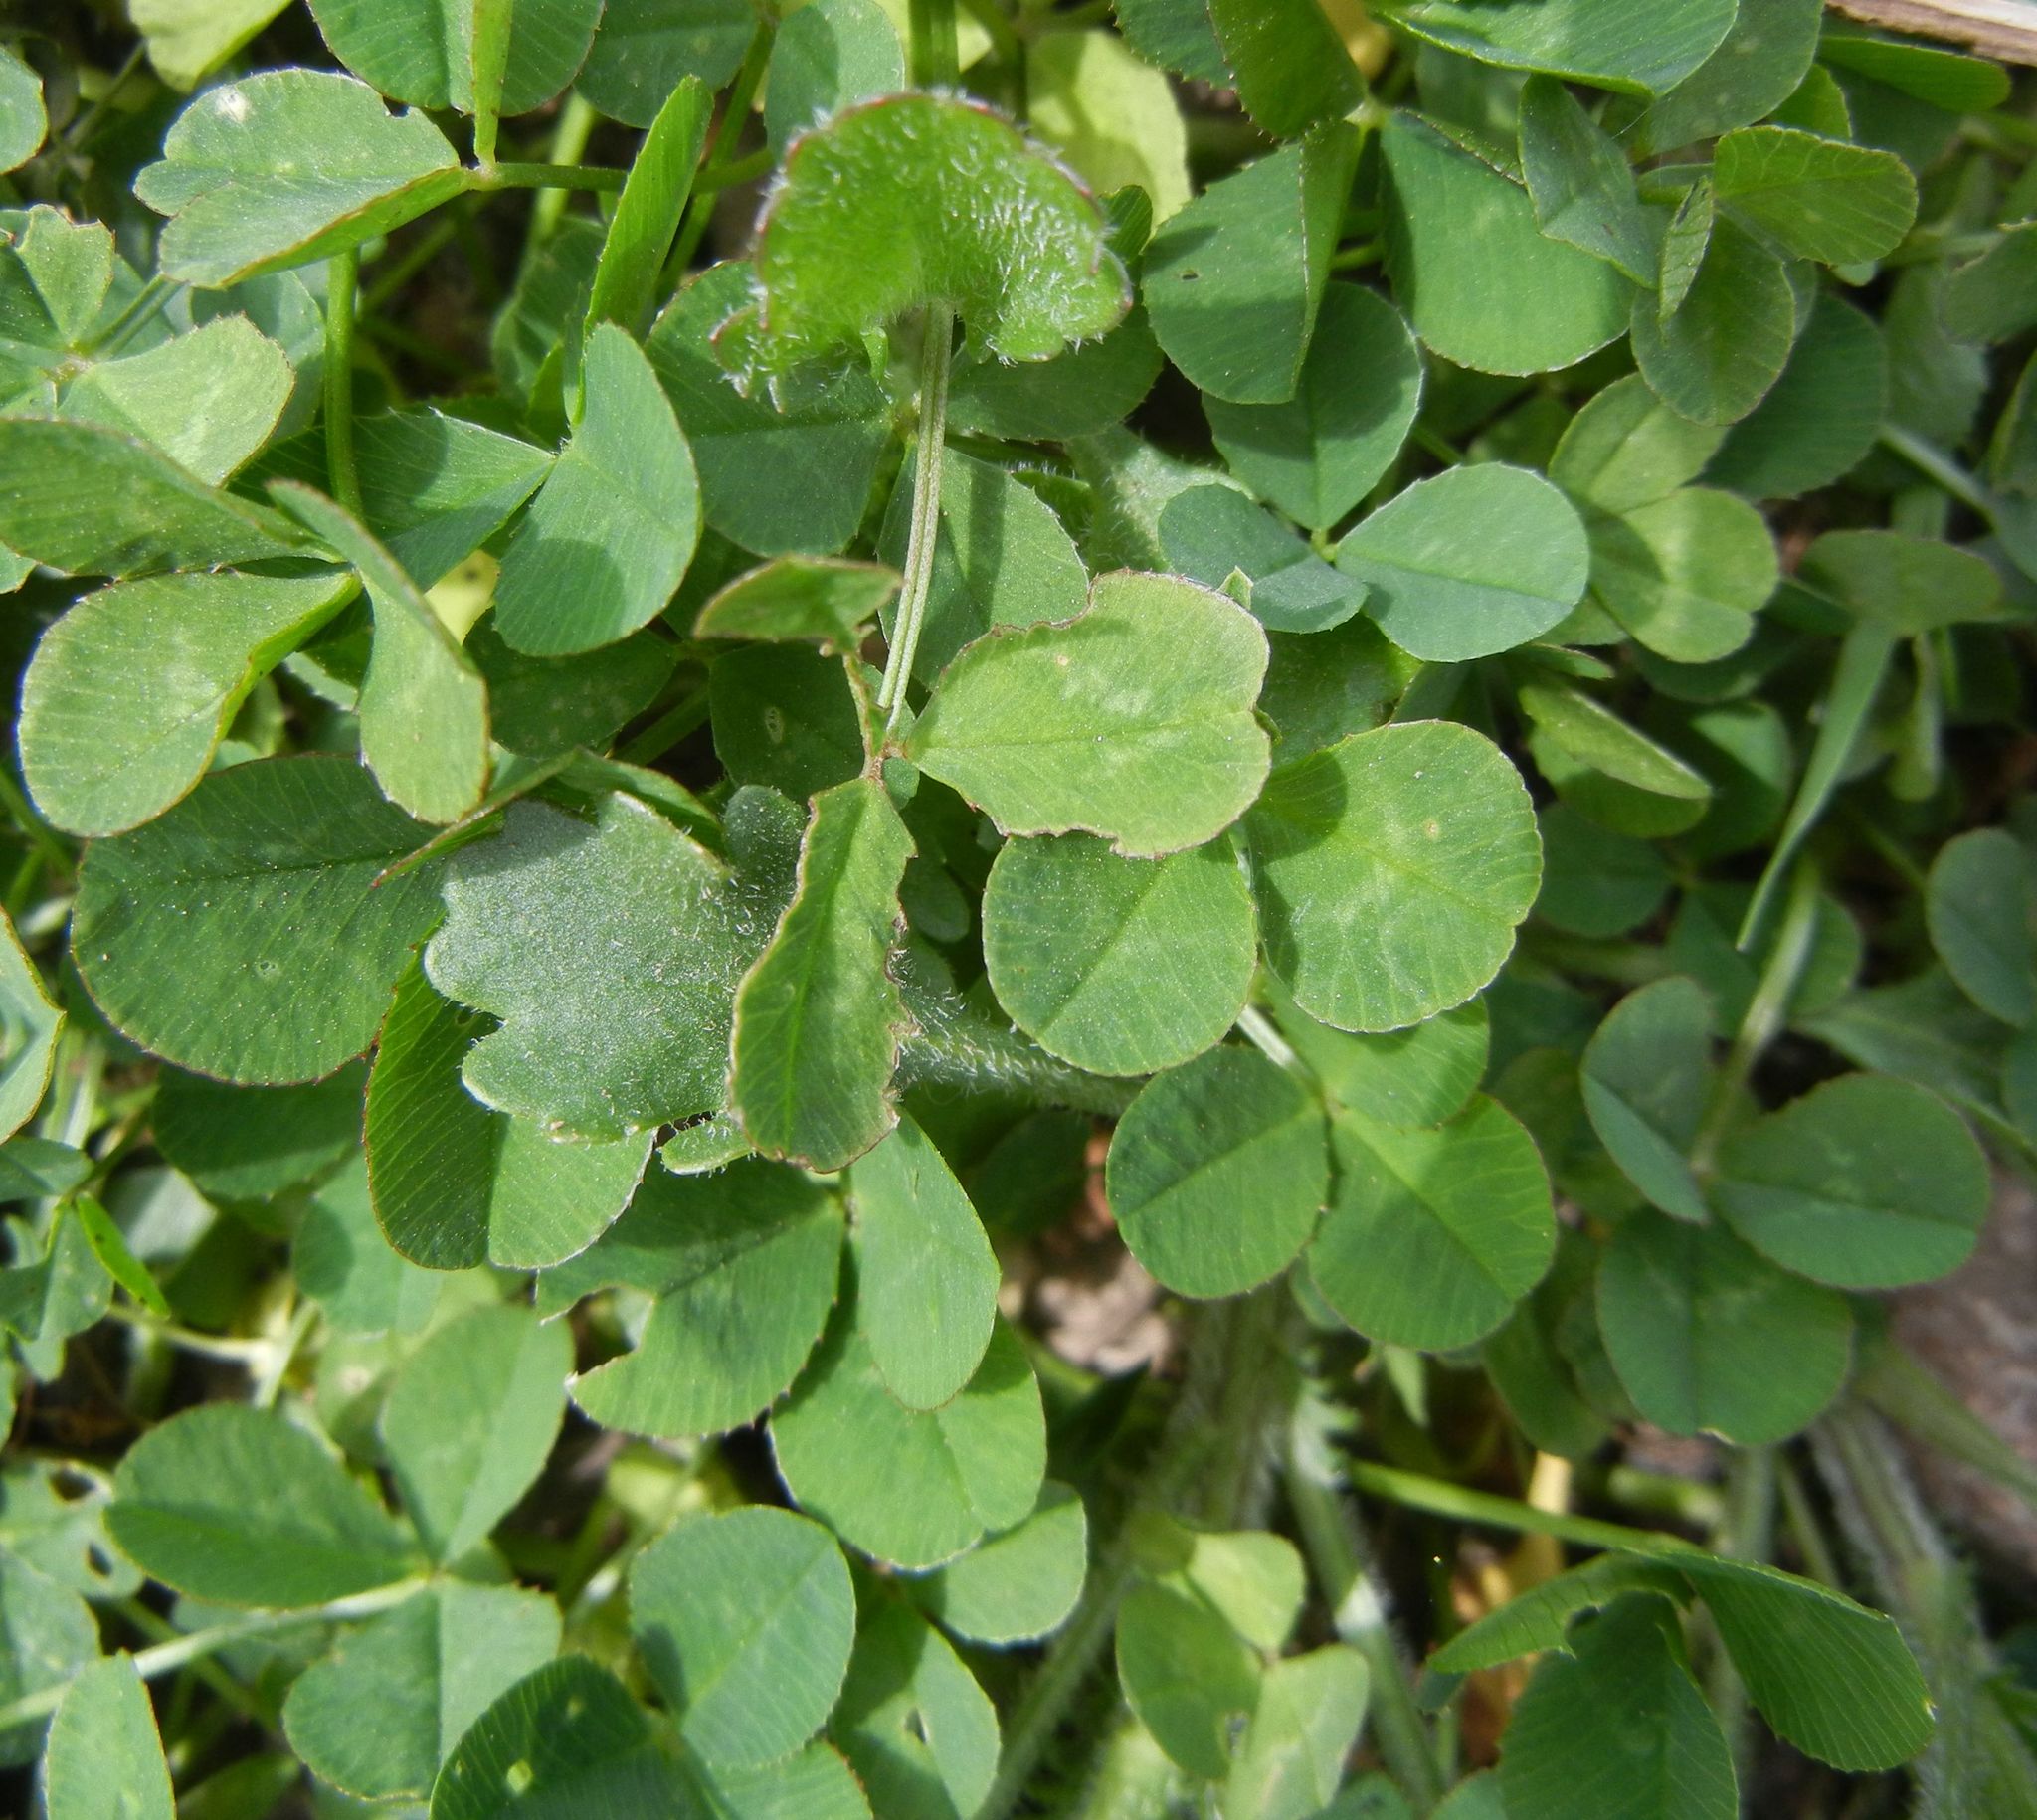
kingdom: Plantae
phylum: Tracheophyta
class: Magnoliopsida
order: Fabales
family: Fabaceae
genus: Trifolium
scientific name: Trifolium repens
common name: White clover
